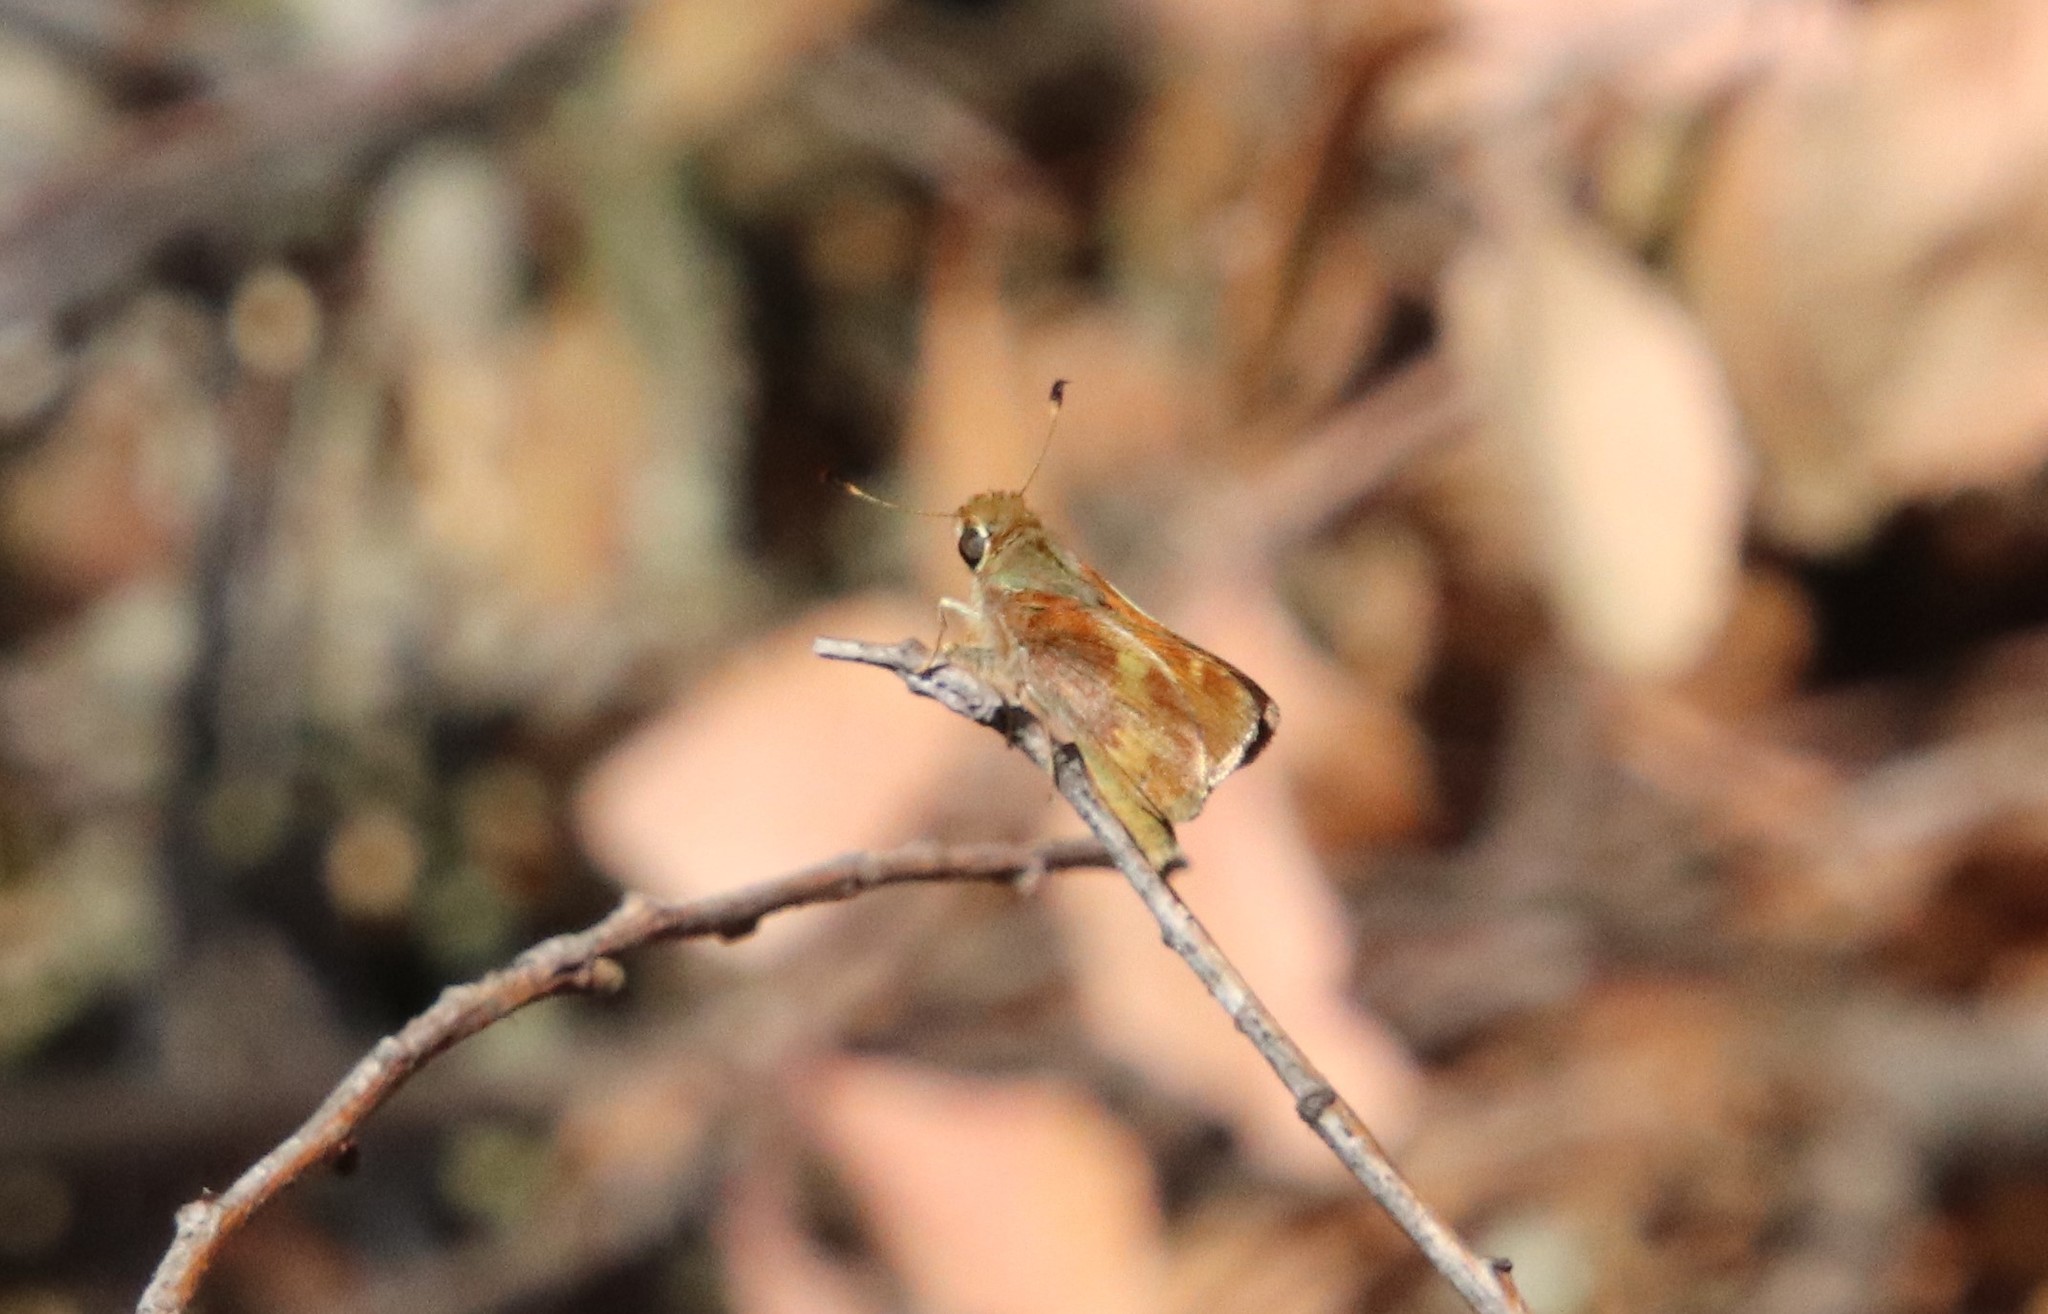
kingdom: Animalia
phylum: Arthropoda
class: Insecta
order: Lepidoptera
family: Hesperiidae
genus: Lon
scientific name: Lon melane
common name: Umber skipper
